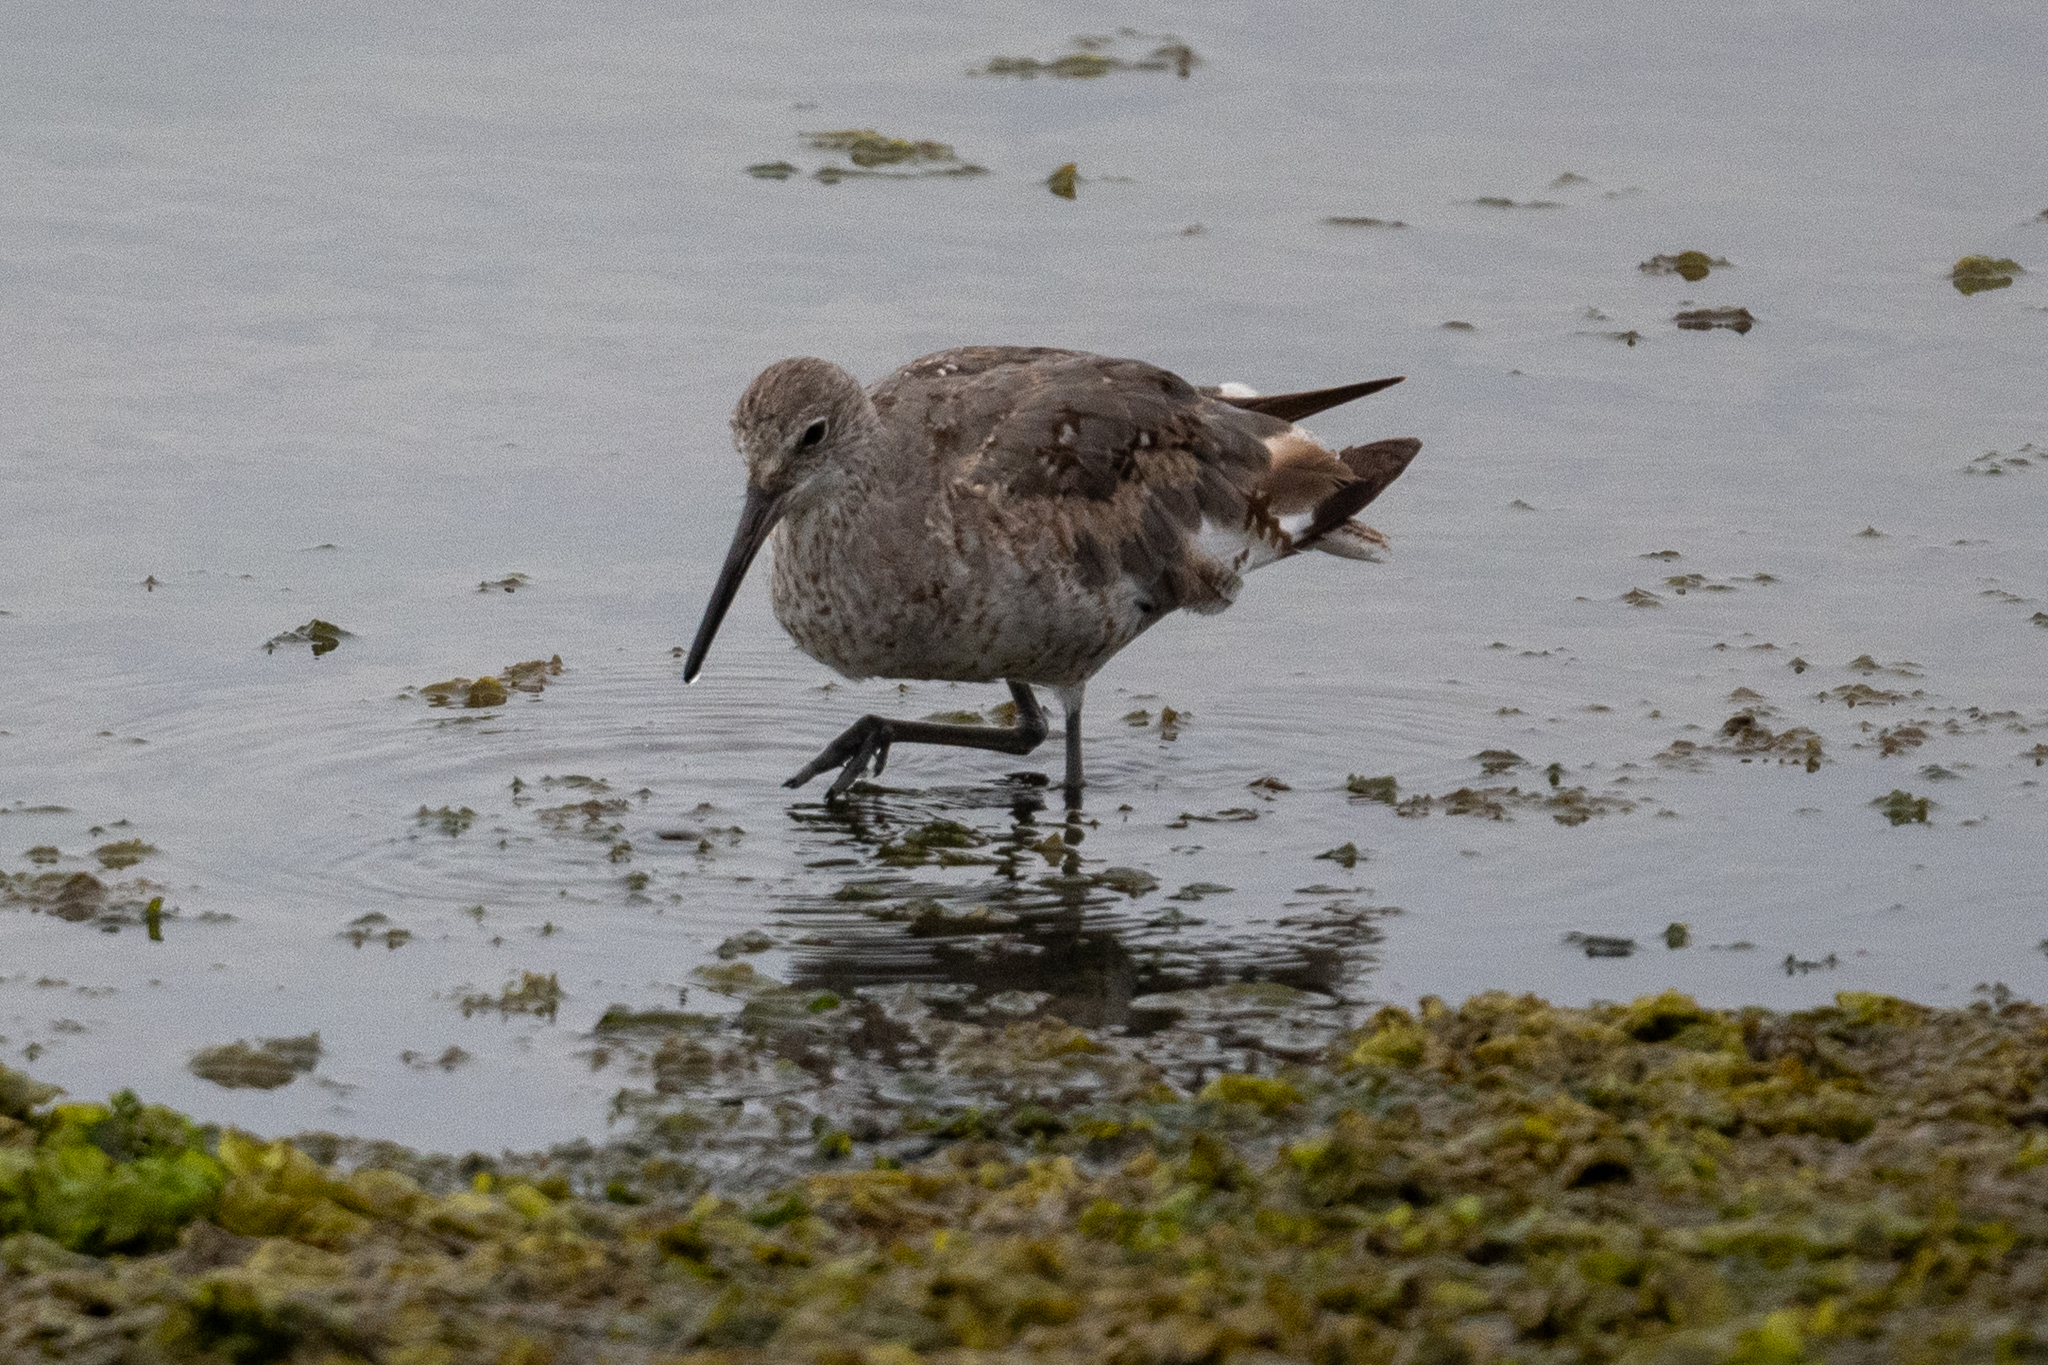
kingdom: Animalia
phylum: Chordata
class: Aves
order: Charadriiformes
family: Scolopacidae
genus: Tringa
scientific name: Tringa semipalmata
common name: Willet
